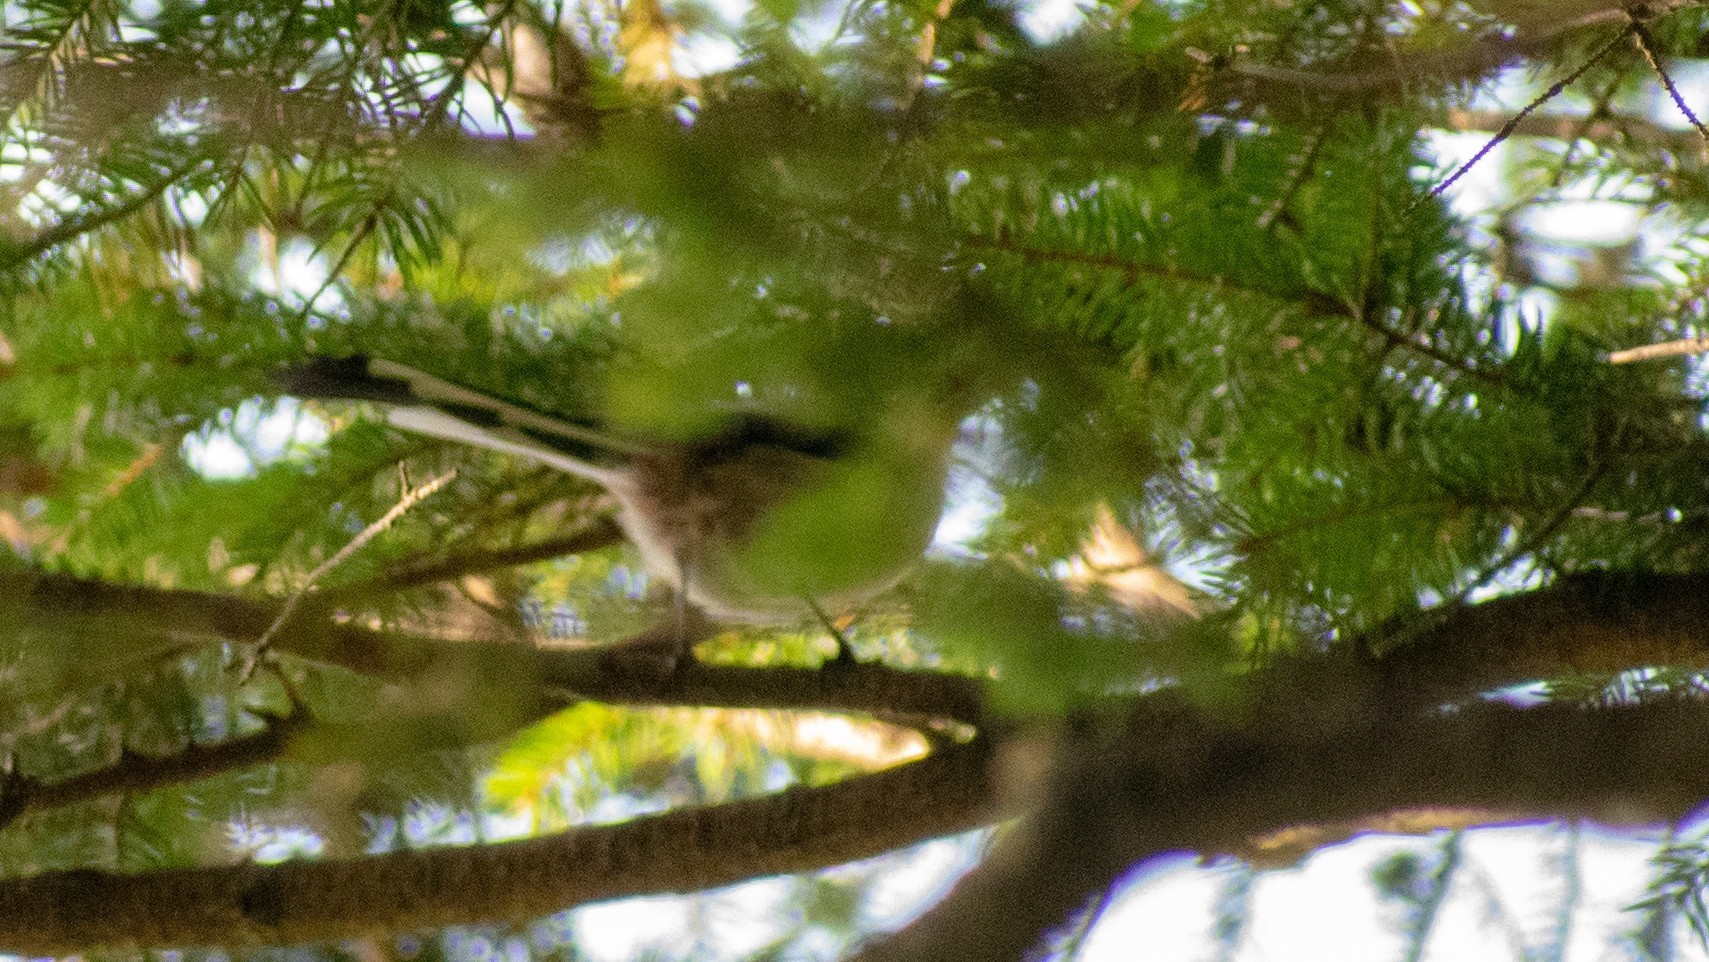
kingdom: Animalia
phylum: Chordata
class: Aves
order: Passeriformes
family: Aegithalidae
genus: Aegithalos
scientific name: Aegithalos caudatus
